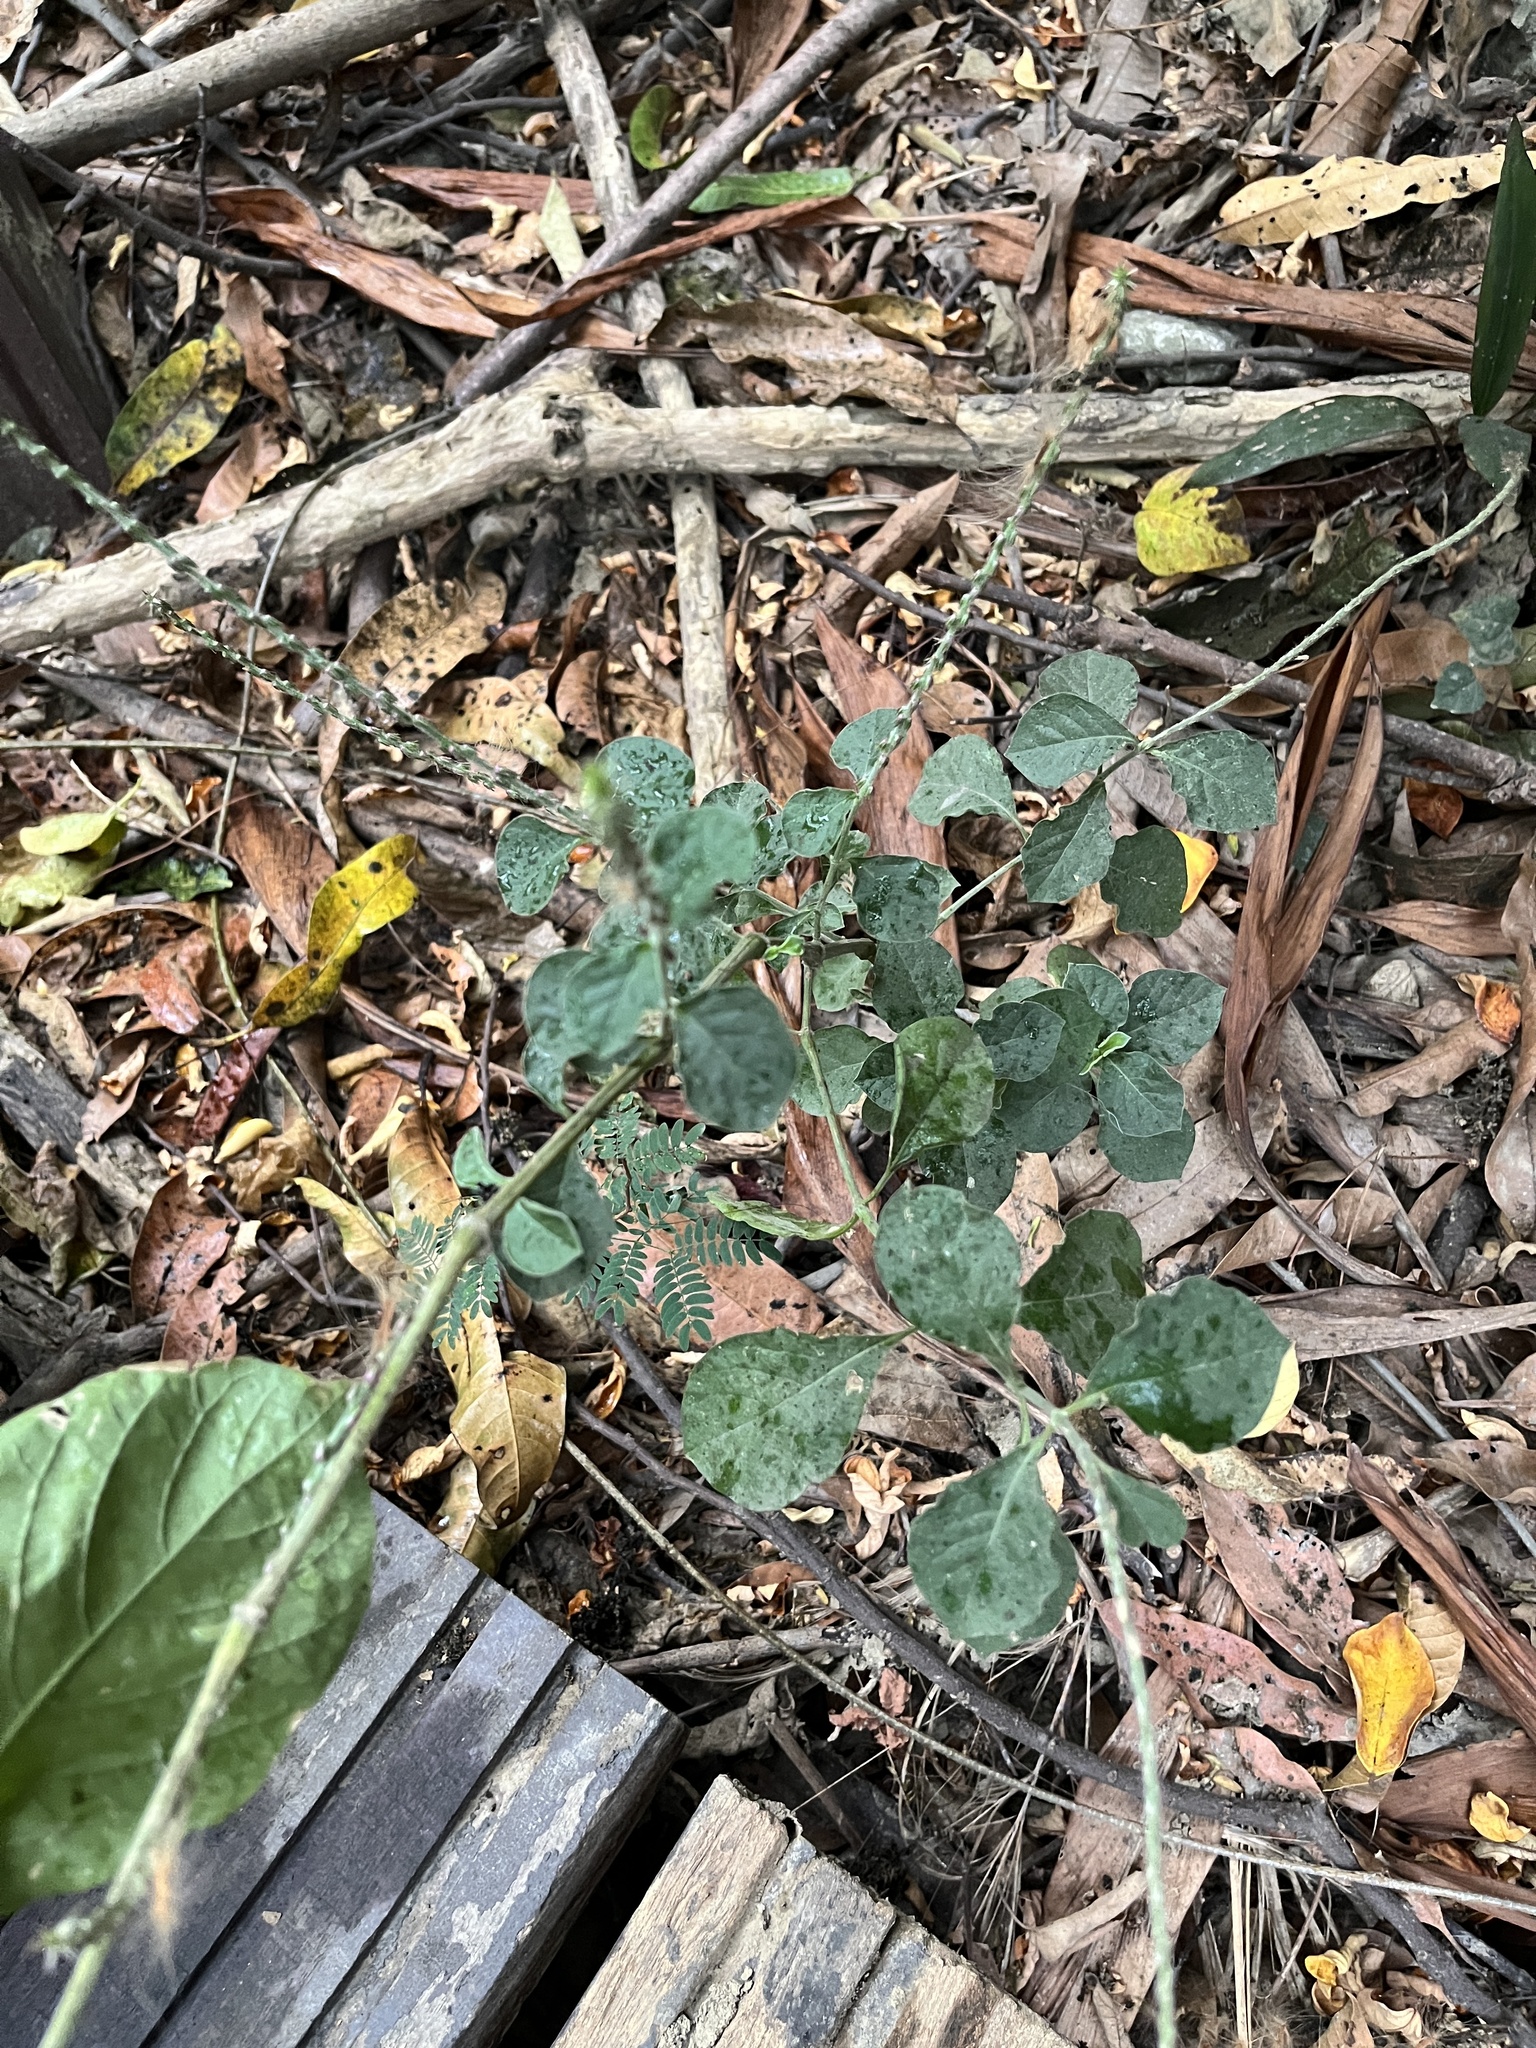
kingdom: Plantae
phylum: Tracheophyta
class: Magnoliopsida
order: Caryophyllales
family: Amaranthaceae
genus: Achyranthes
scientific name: Achyranthes aspera
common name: Devil's horsewhip
